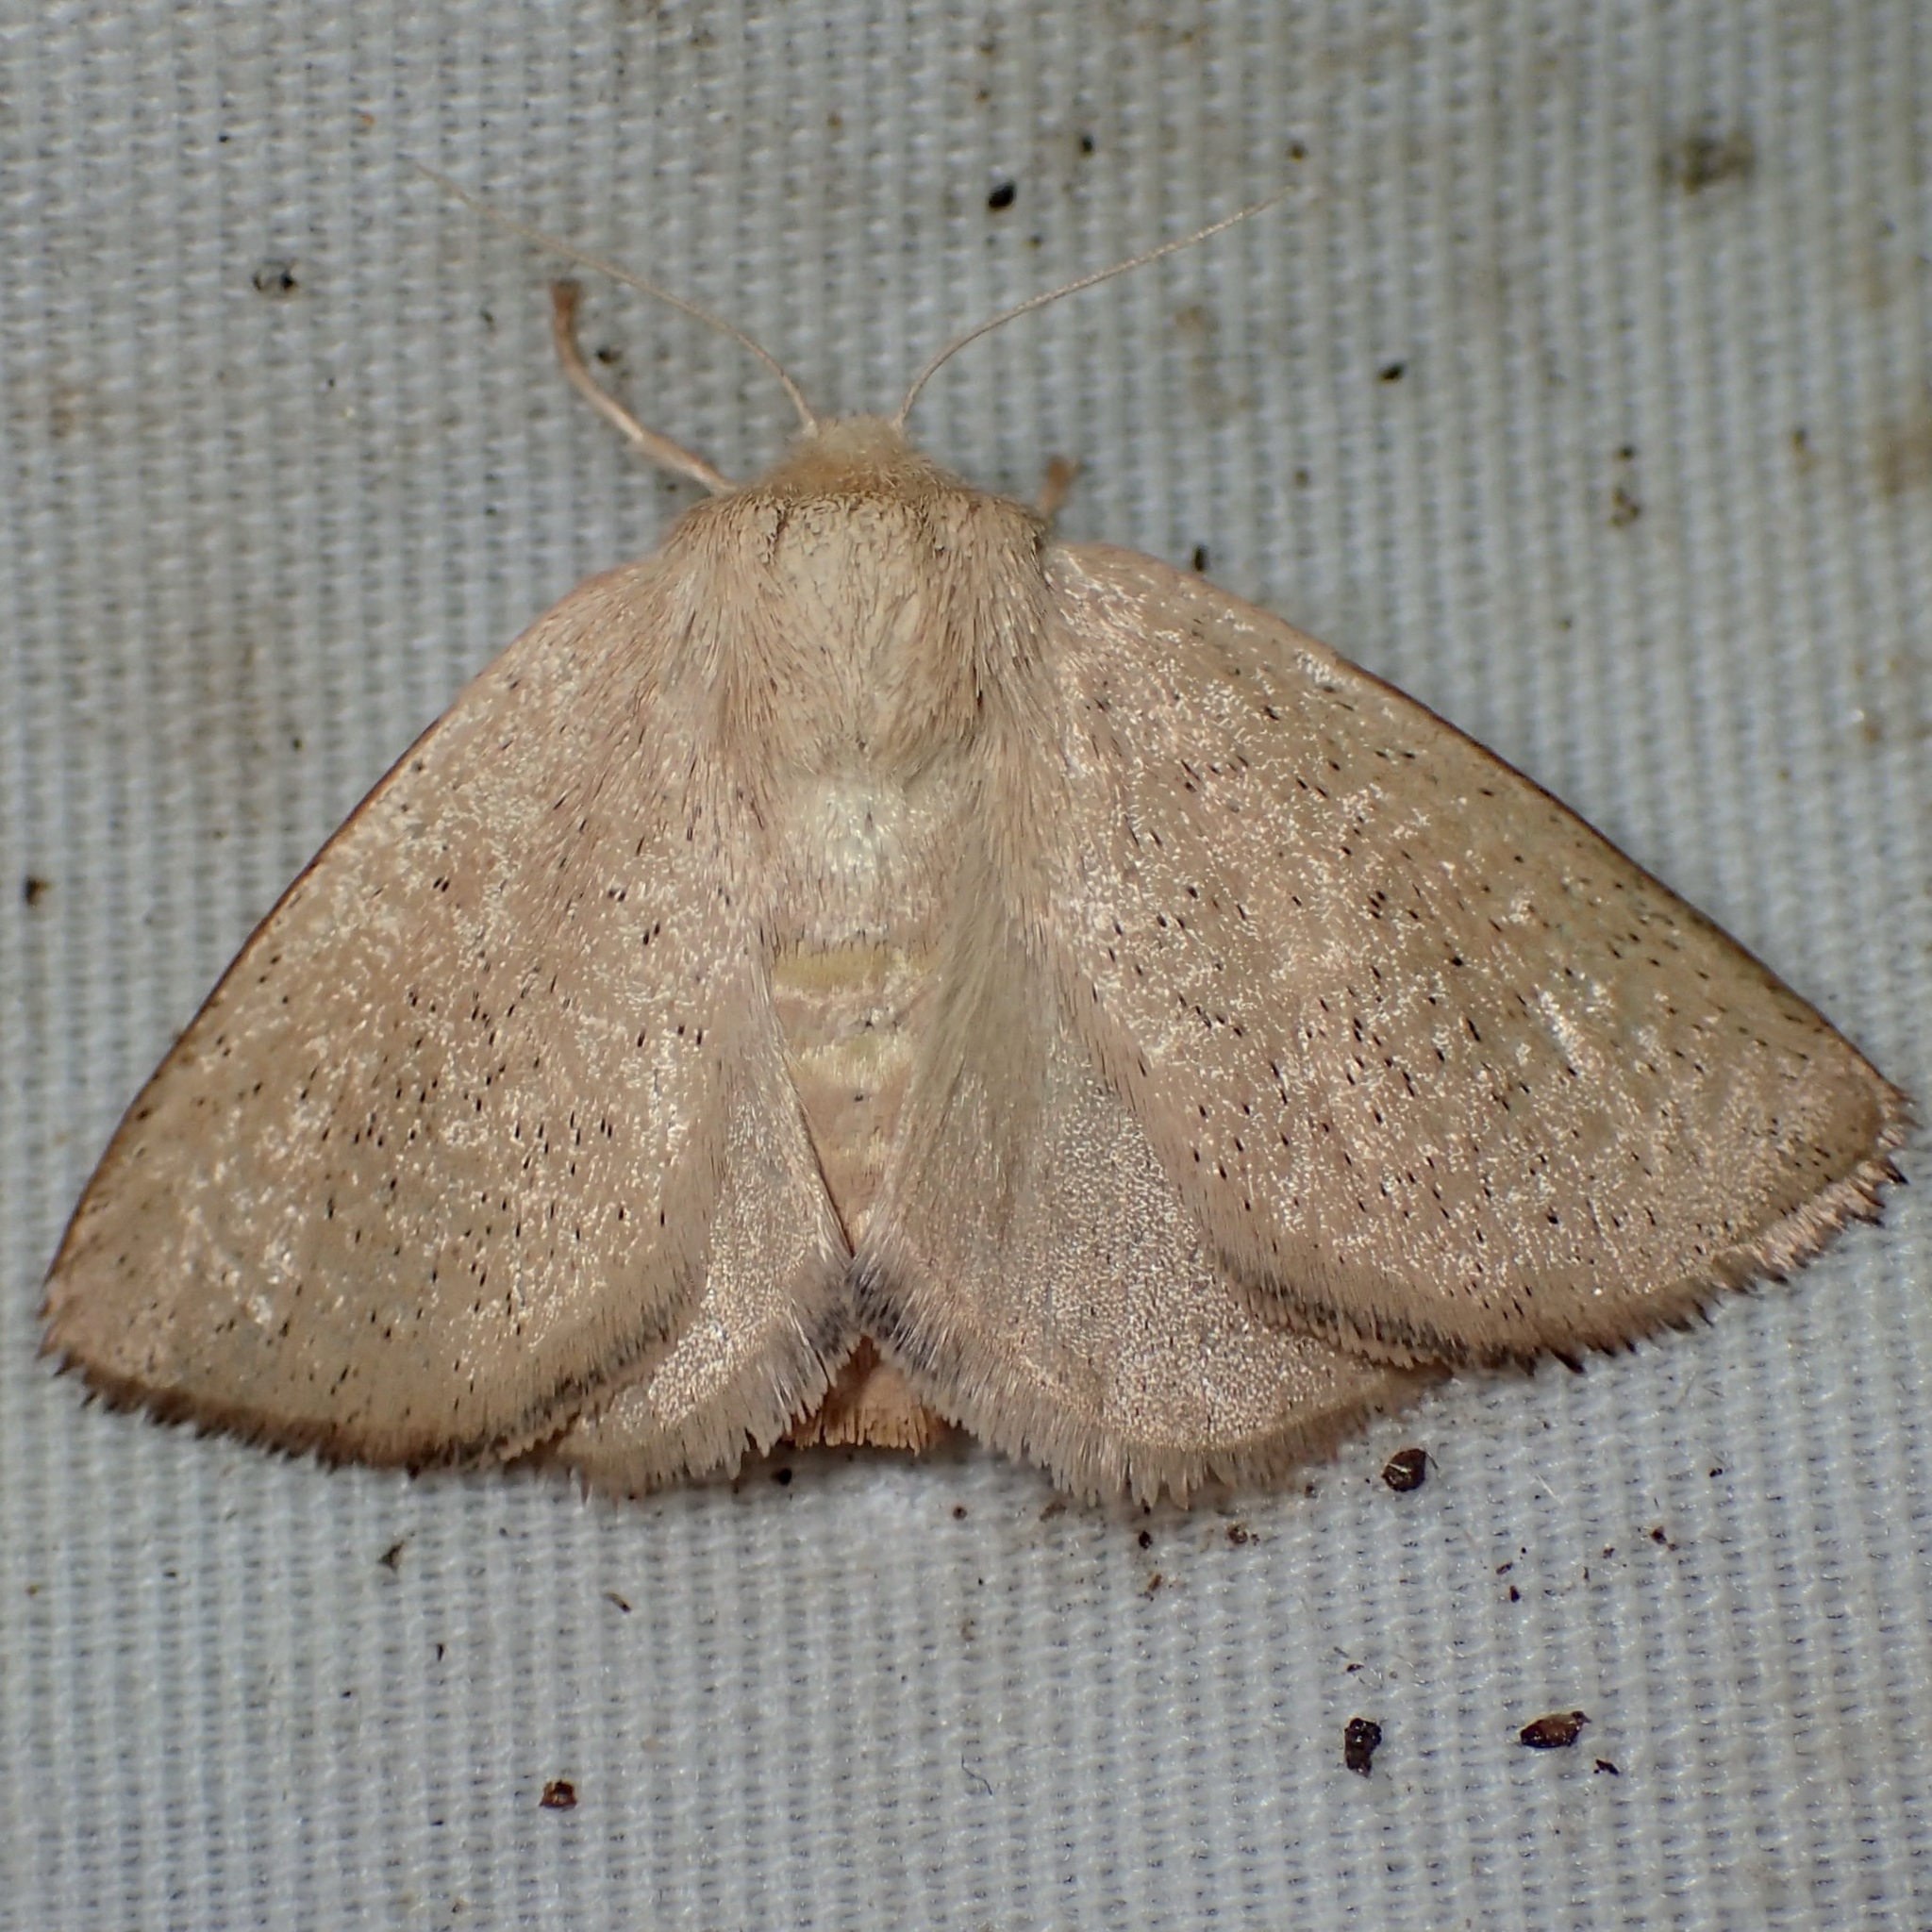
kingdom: Animalia
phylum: Arthropoda
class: Insecta
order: Lepidoptera
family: Limacodidae
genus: Isa
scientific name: Isa schaefferana
